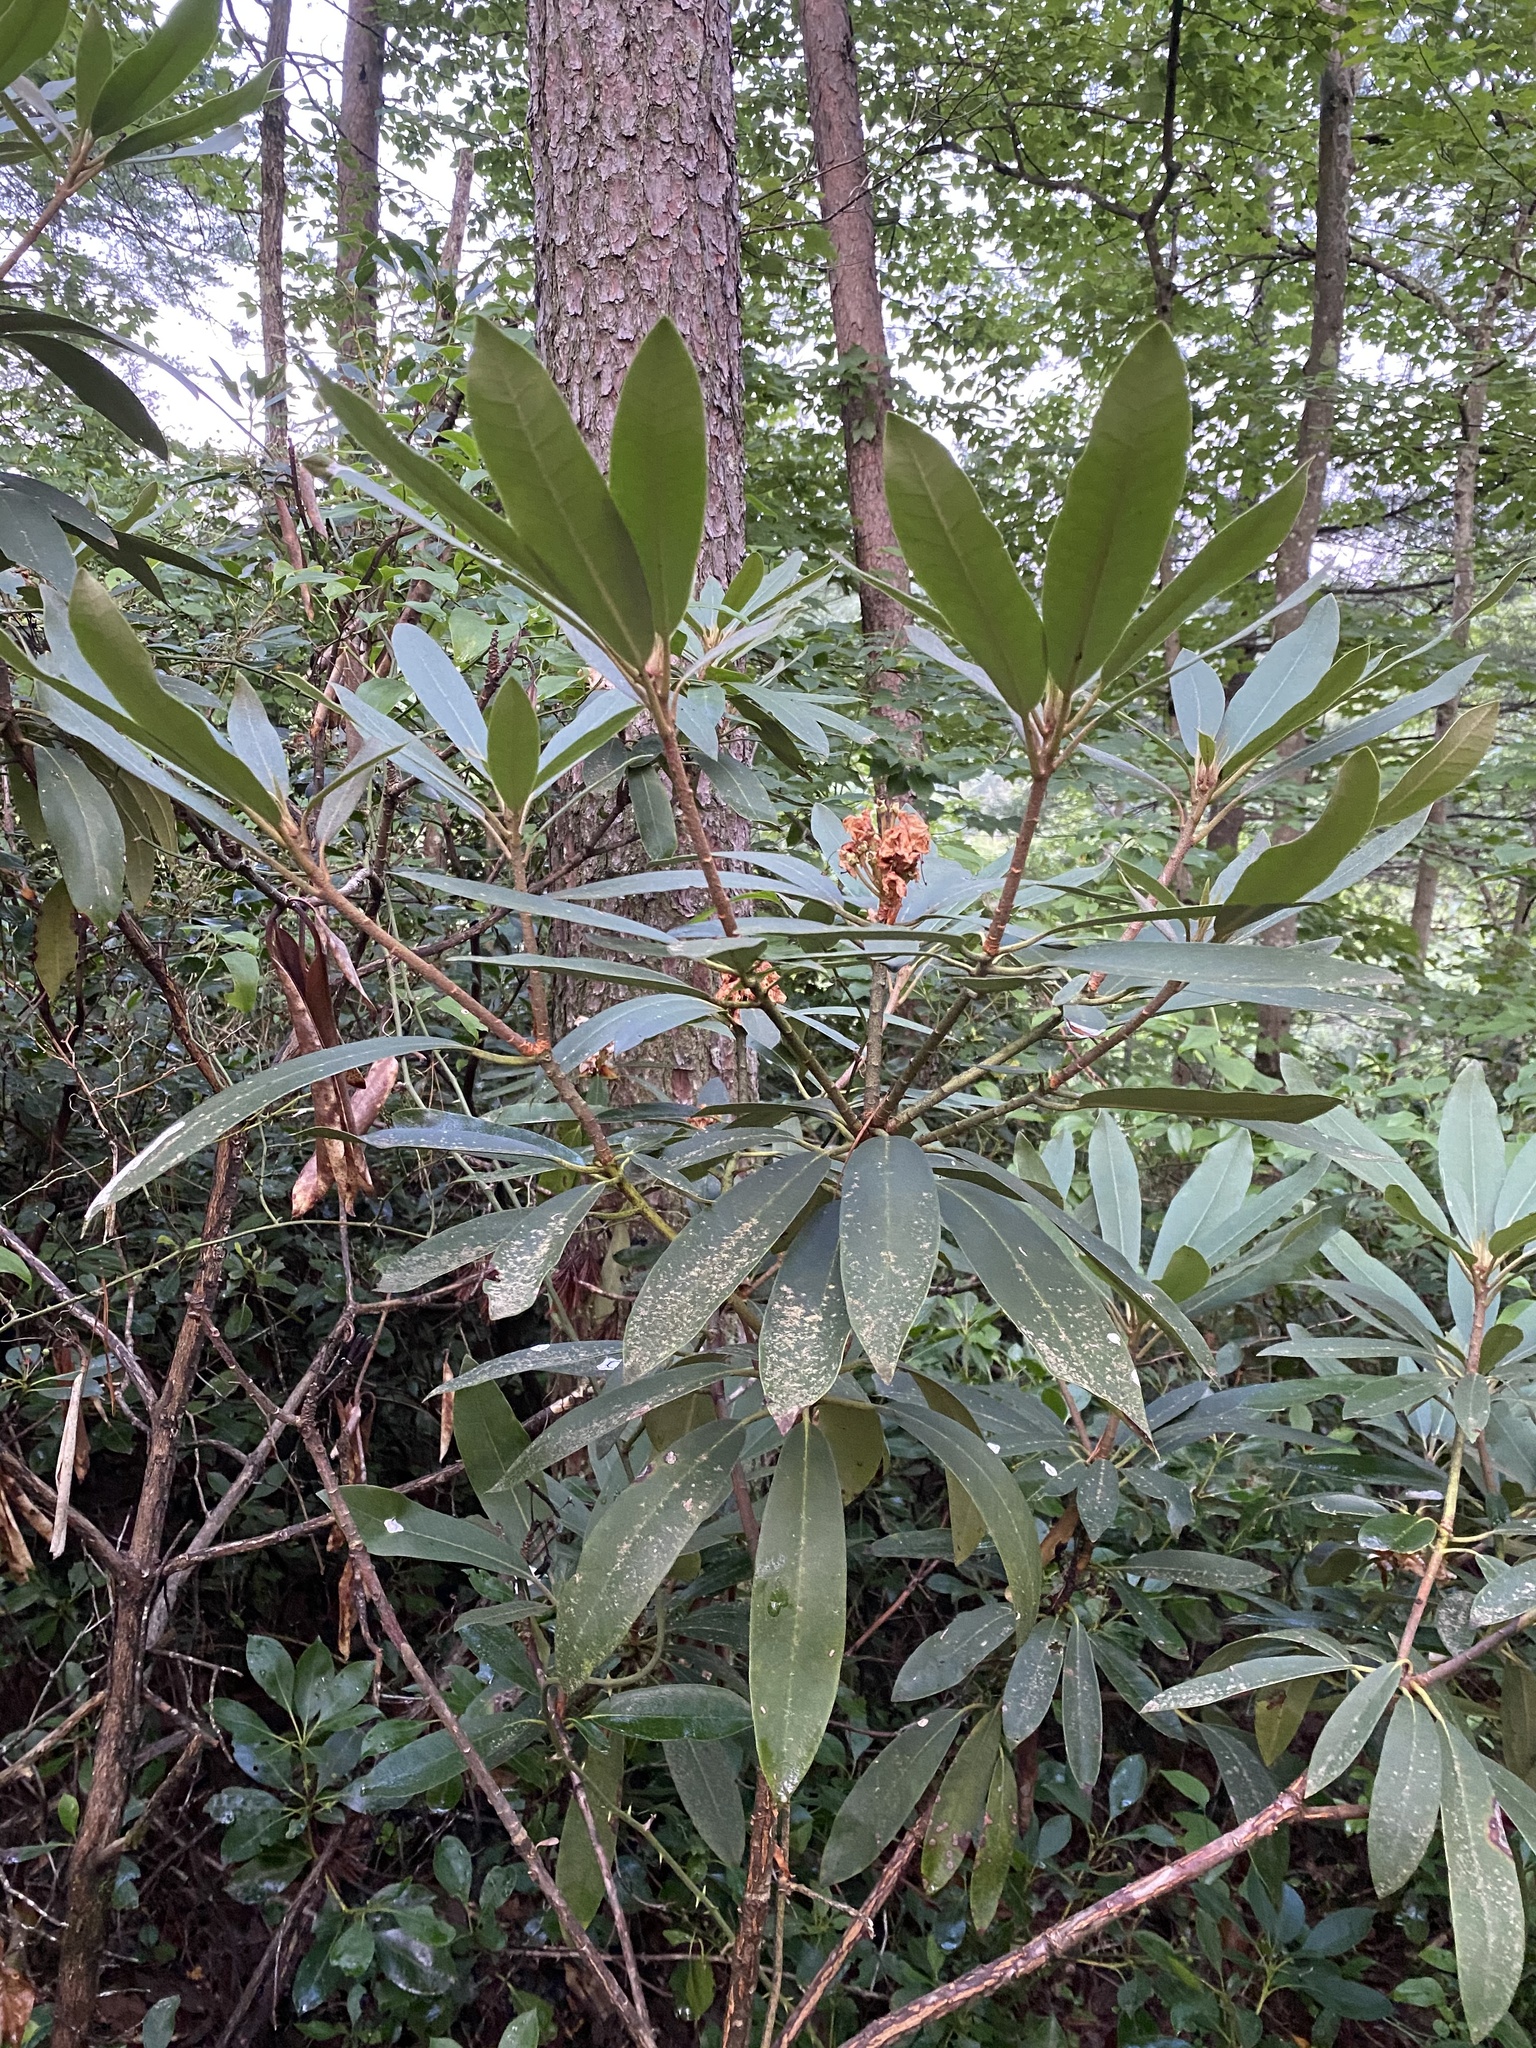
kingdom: Plantae
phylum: Tracheophyta
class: Magnoliopsida
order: Ericales
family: Ericaceae
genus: Rhododendron
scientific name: Rhododendron maximum
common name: Great rhododendron
